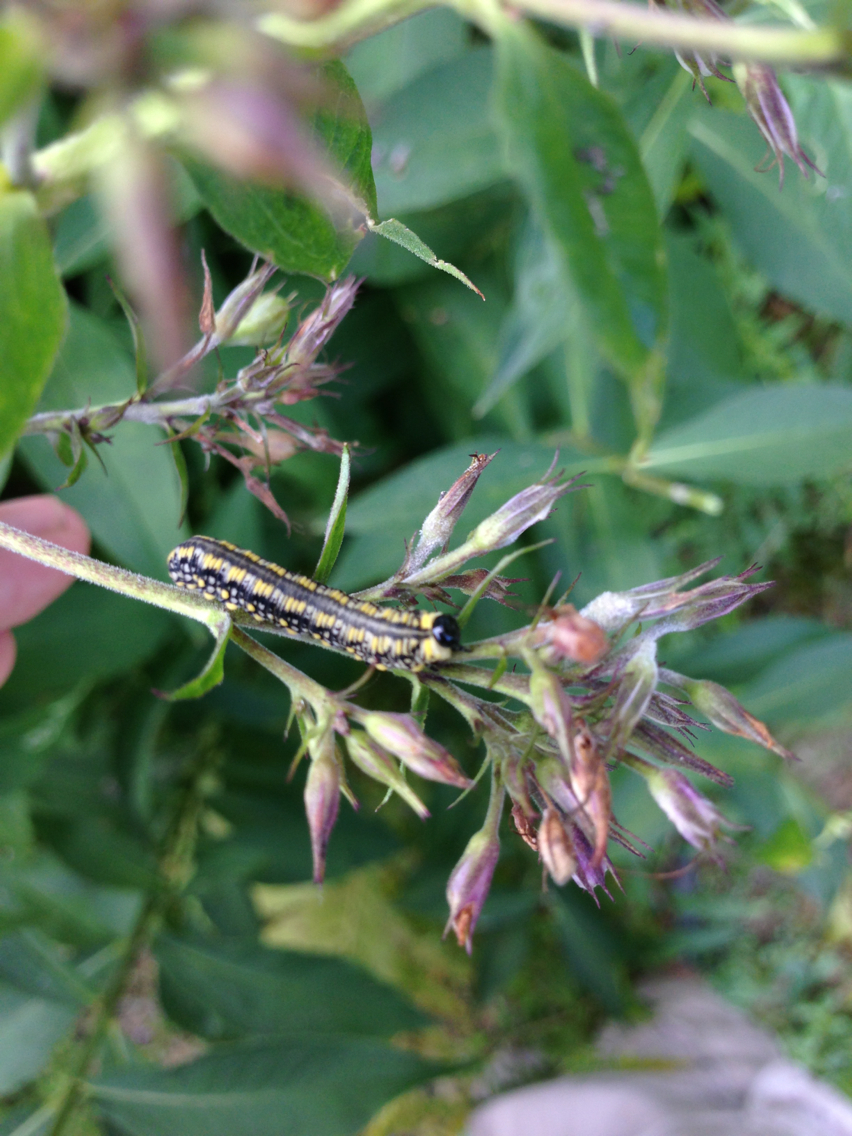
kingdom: Animalia
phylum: Arthropoda
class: Insecta
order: Hymenoptera
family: Diprionidae
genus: Diprion
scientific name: Diprion similis
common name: Pine sawfly
